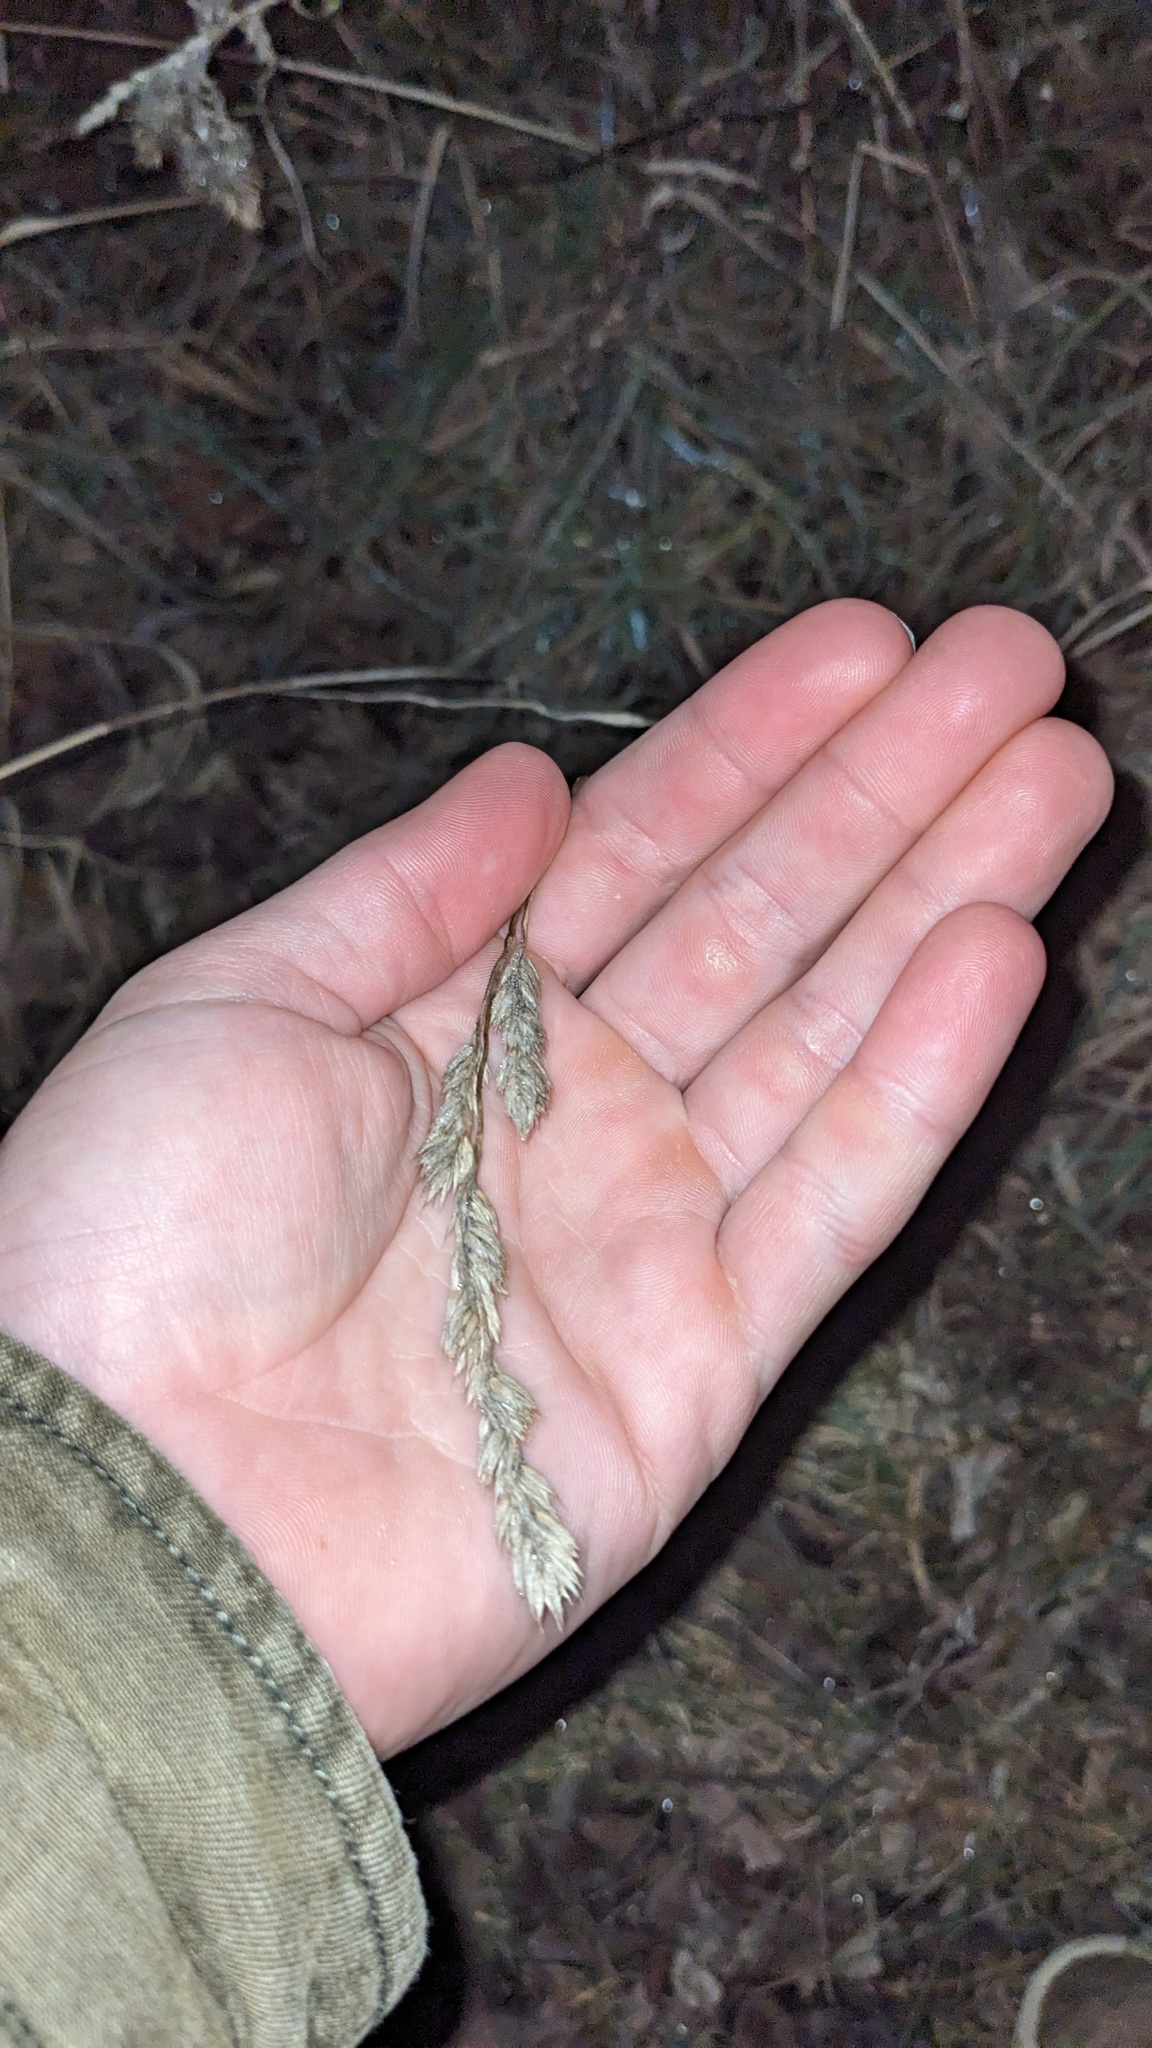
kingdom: Plantae
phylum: Tracheophyta
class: Liliopsida
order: Poales
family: Poaceae
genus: Dactylis
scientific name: Dactylis glomerata
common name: Orchardgrass
